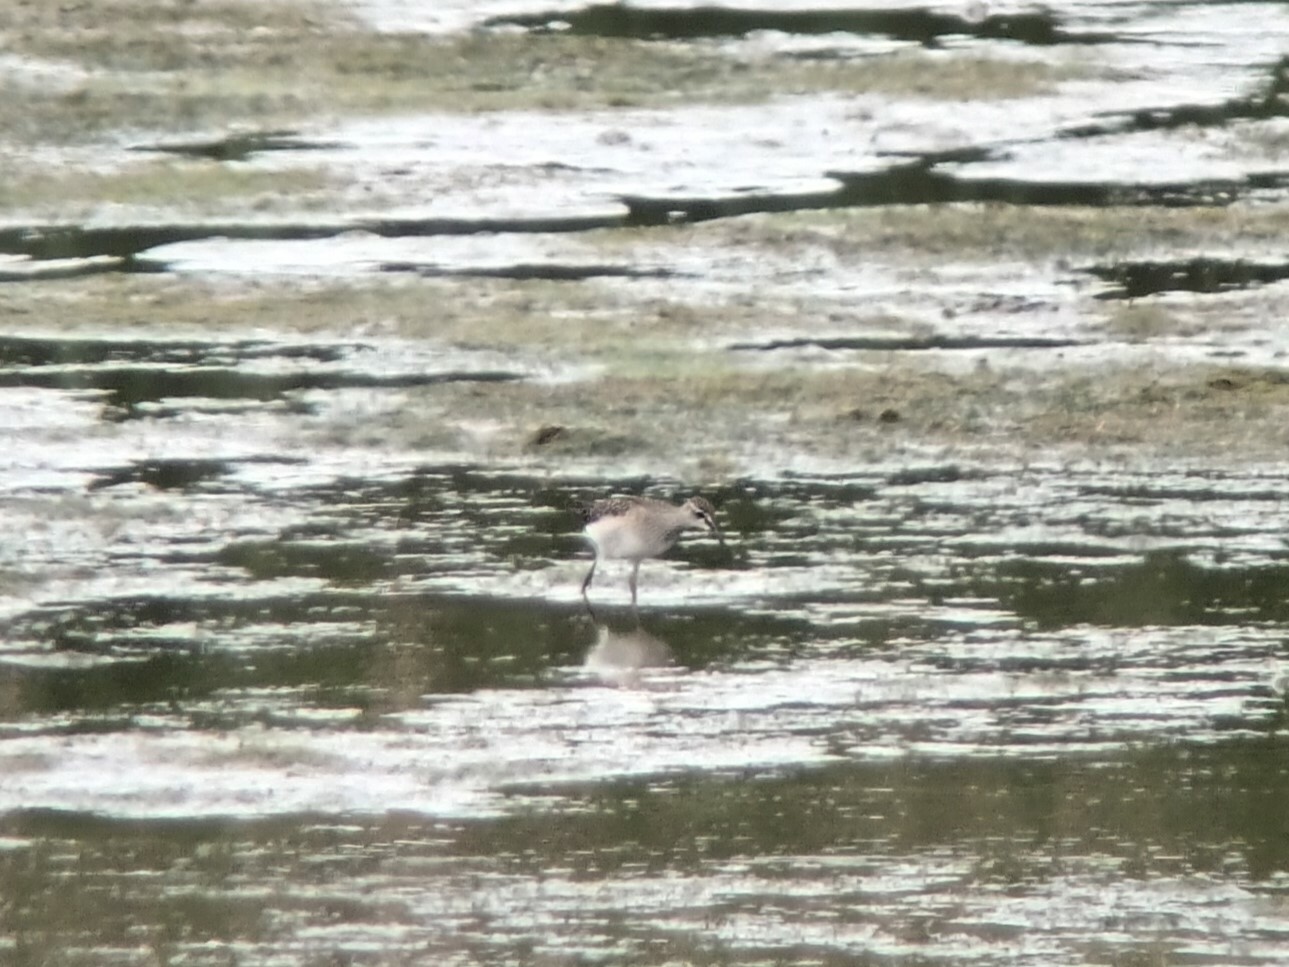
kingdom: Animalia
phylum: Chordata
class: Aves
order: Charadriiformes
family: Scolopacidae
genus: Tringa
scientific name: Tringa glareola
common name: Wood sandpiper
